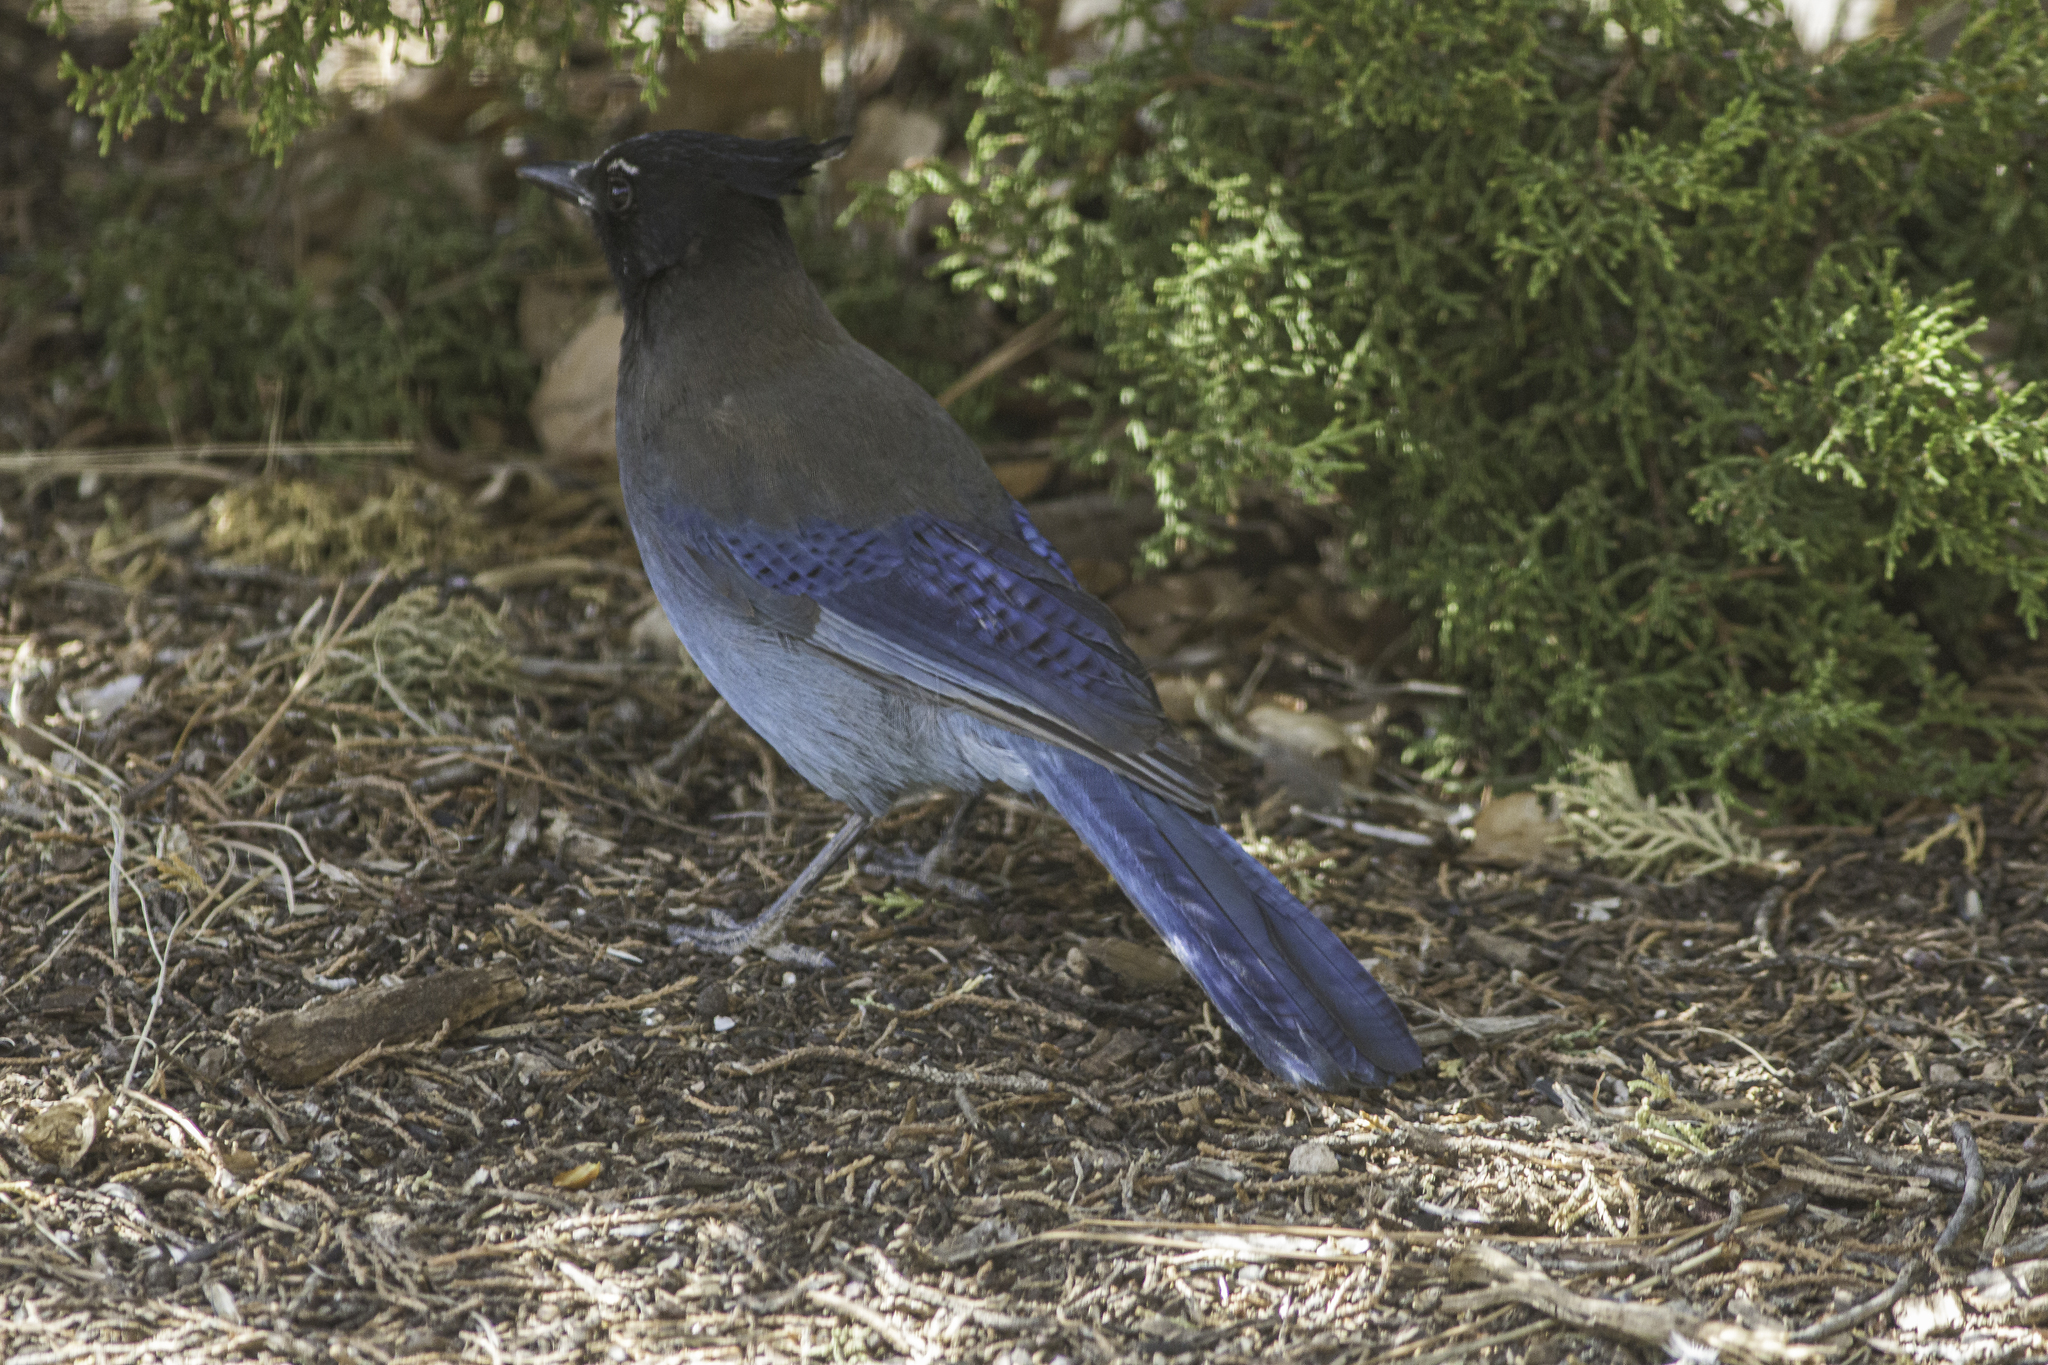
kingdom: Animalia
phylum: Chordata
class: Aves
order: Passeriformes
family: Corvidae
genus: Cyanocitta
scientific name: Cyanocitta stelleri
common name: Steller's jay
